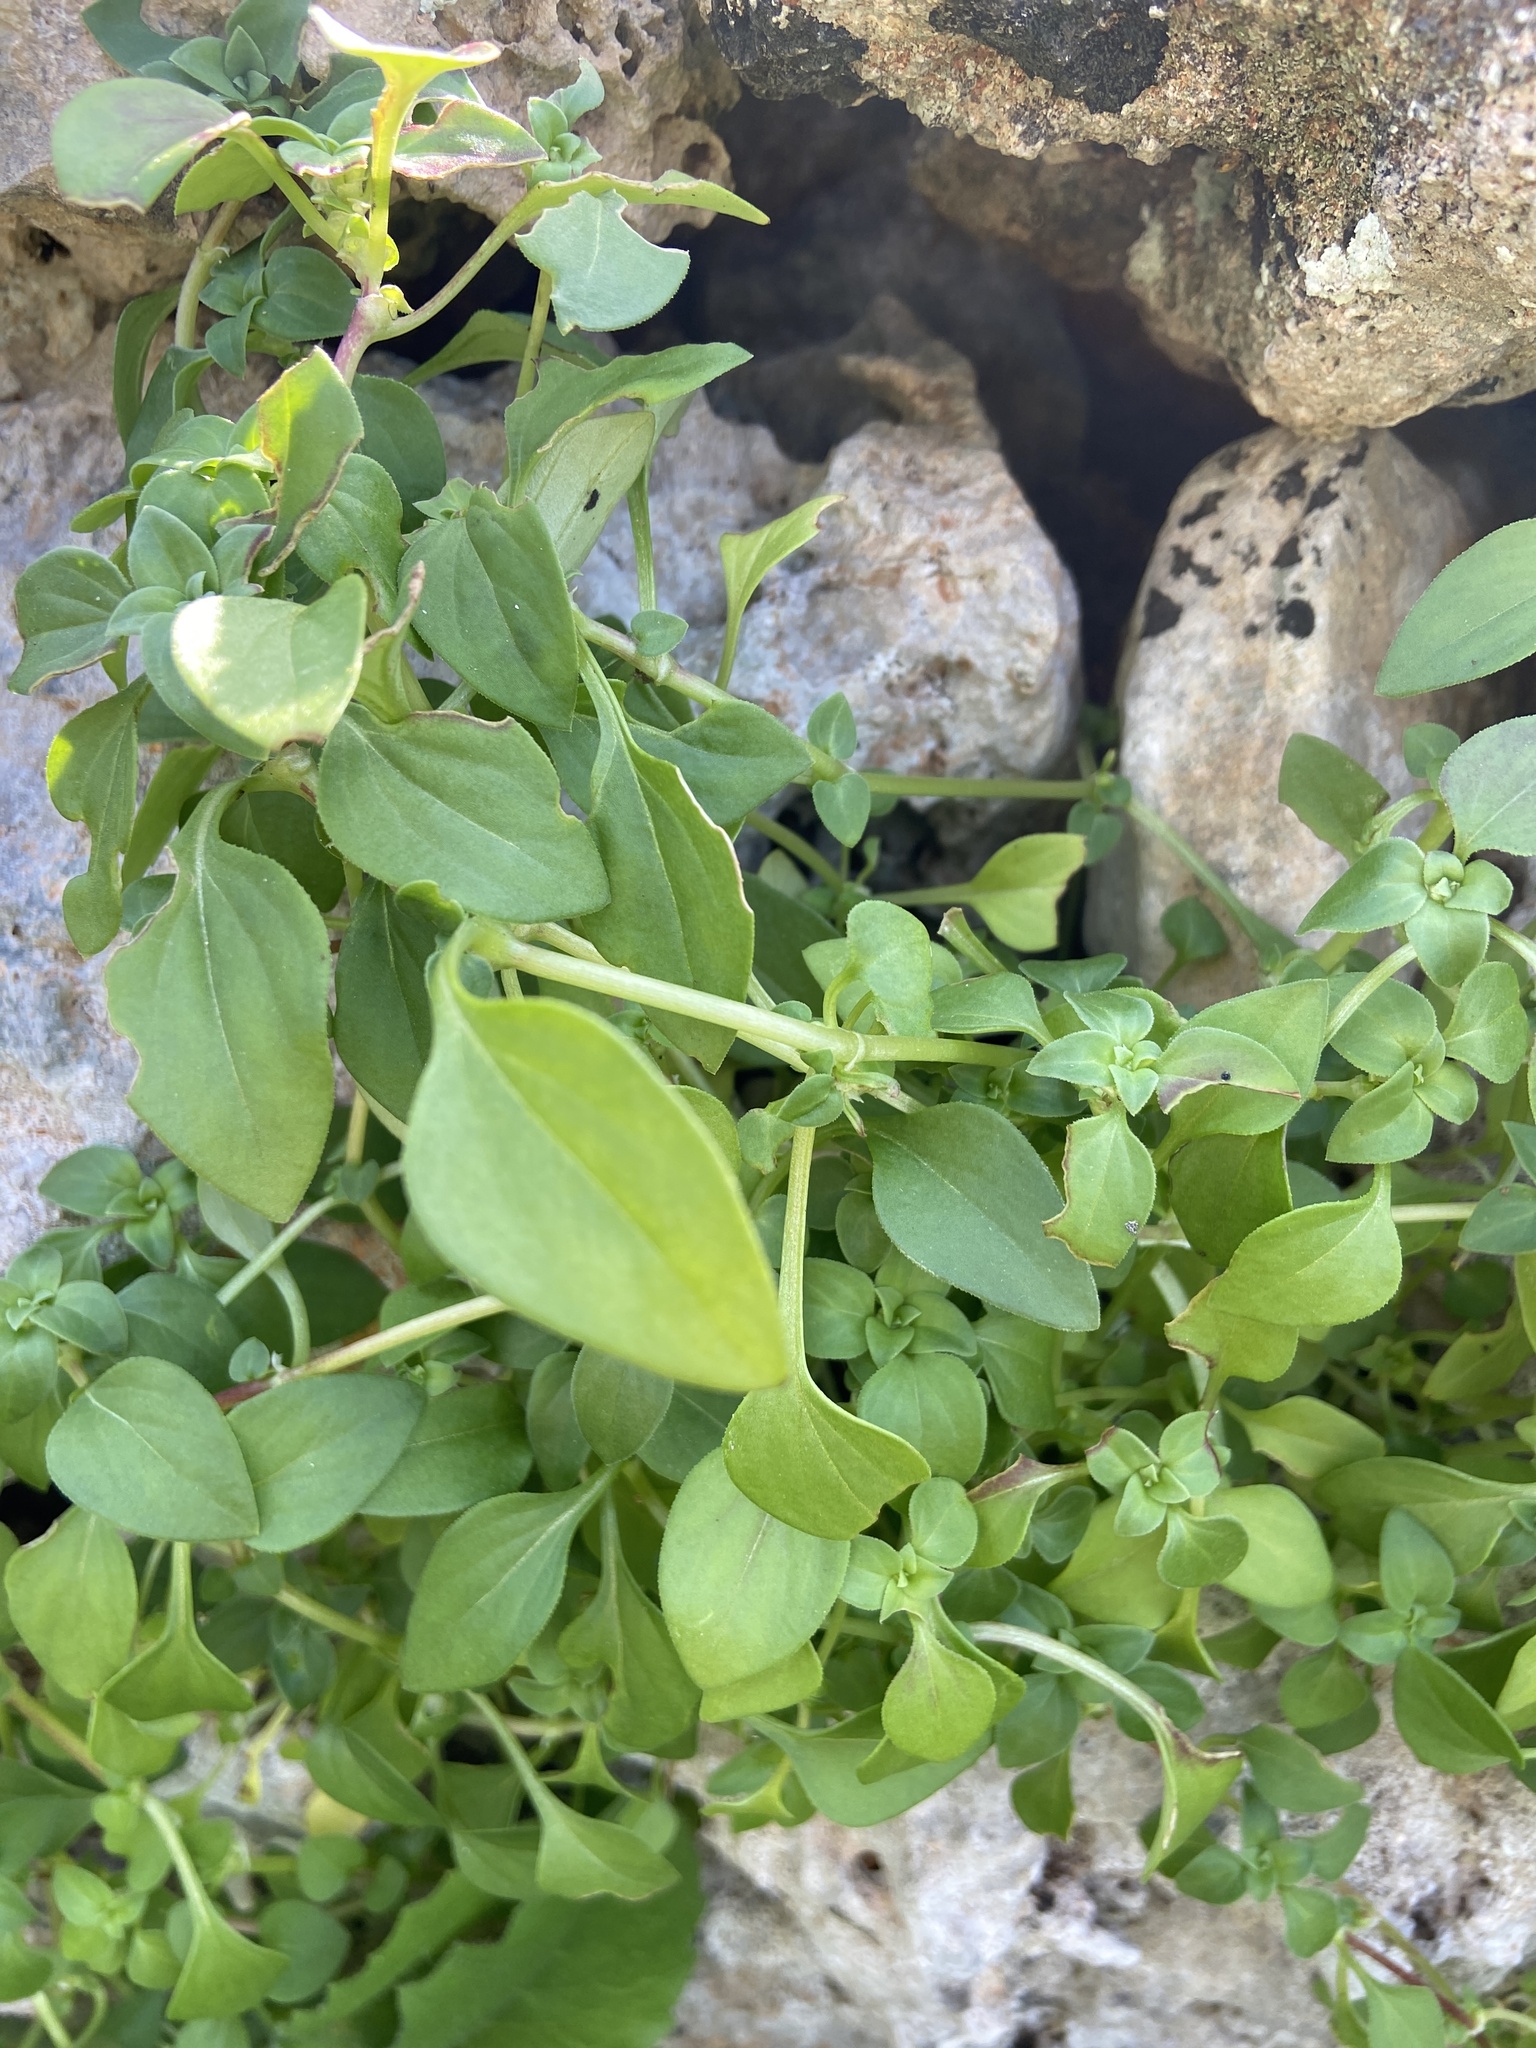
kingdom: Plantae
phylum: Tracheophyta
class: Magnoliopsida
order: Gentianales
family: Rubiaceae
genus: Theligonum
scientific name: Theligonum cynocrambe
